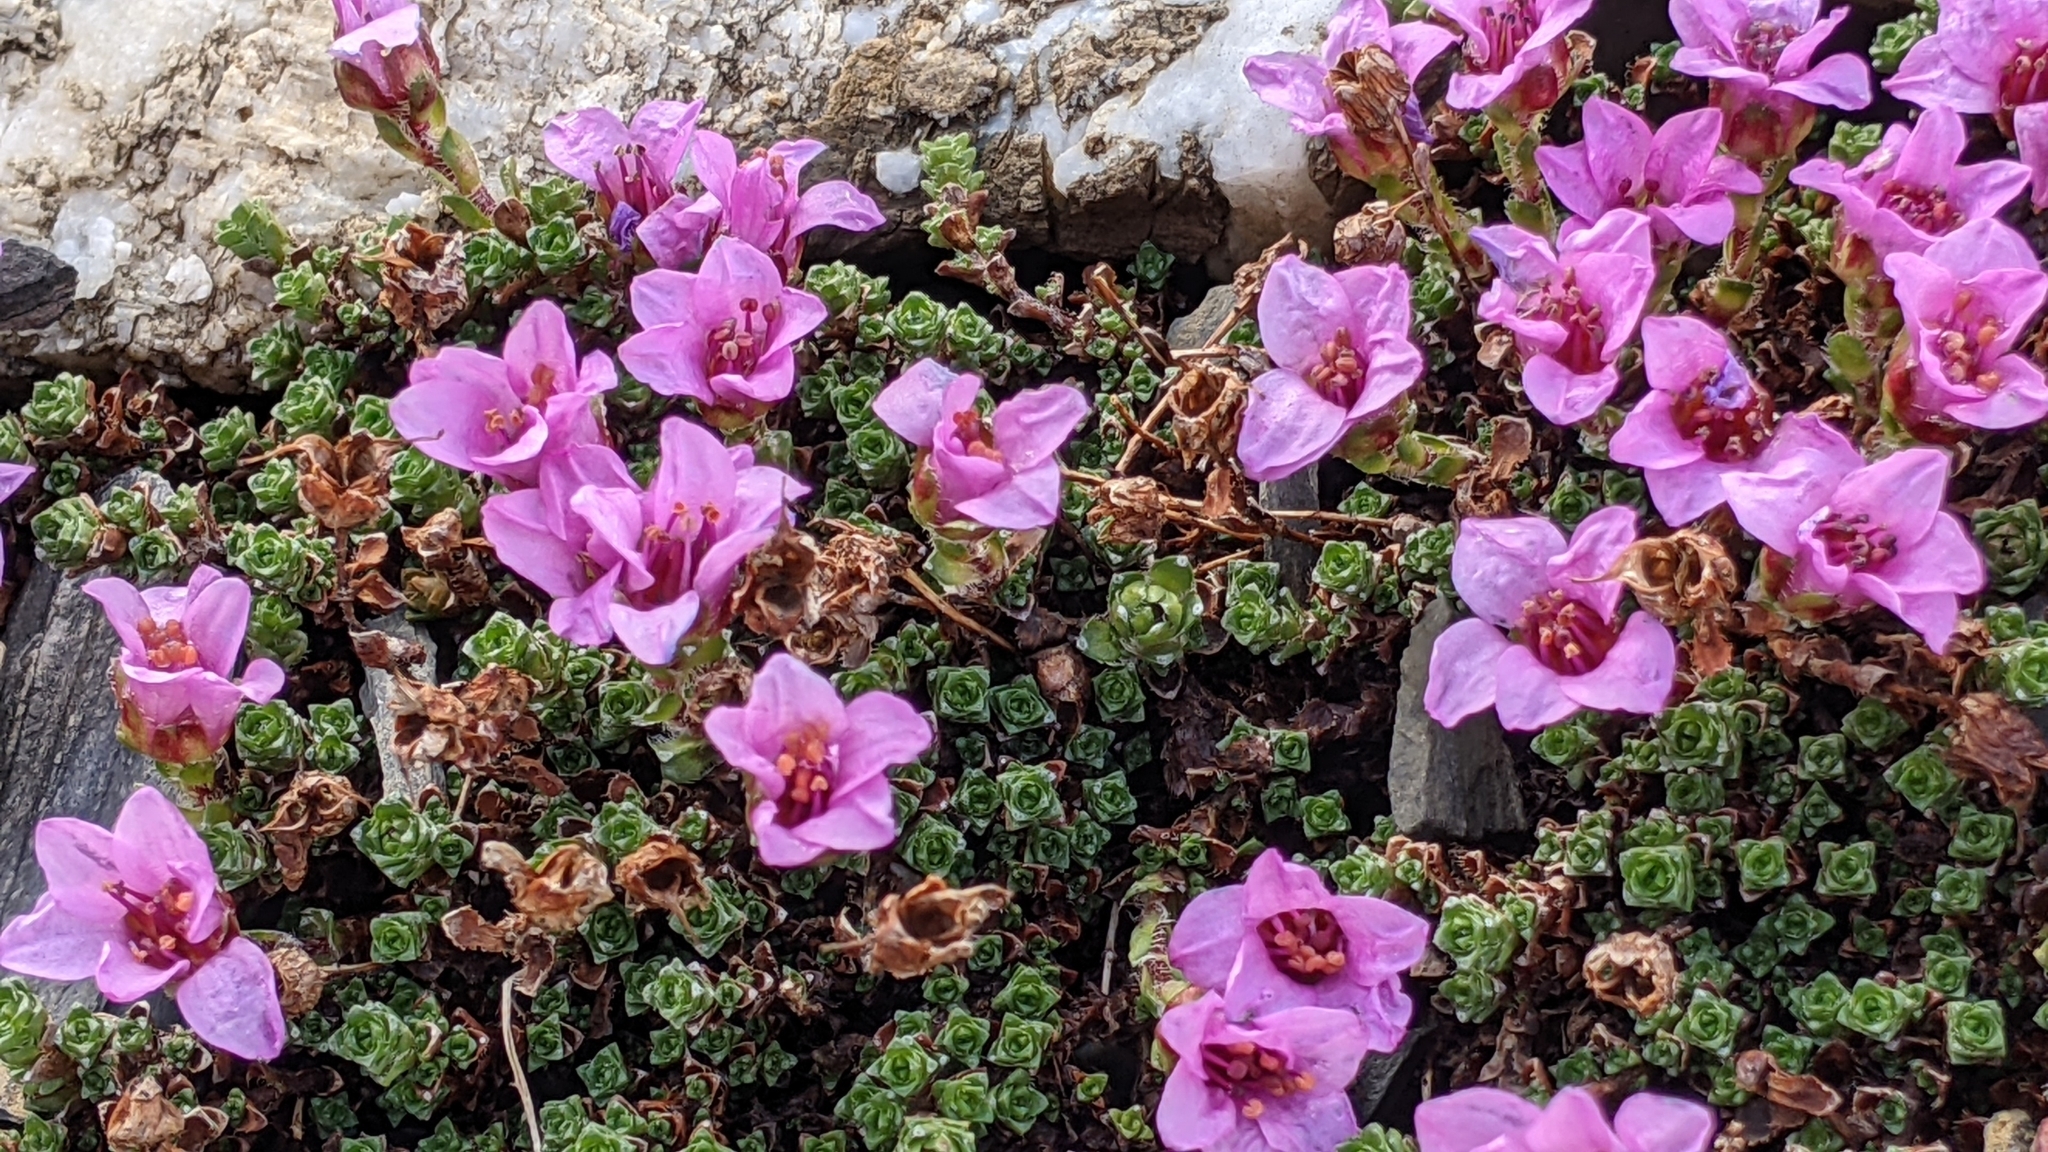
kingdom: Plantae
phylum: Tracheophyta
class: Magnoliopsida
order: Saxifragales
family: Saxifragaceae
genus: Saxifraga
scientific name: Saxifraga oppositifolia
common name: Purple saxifrage
